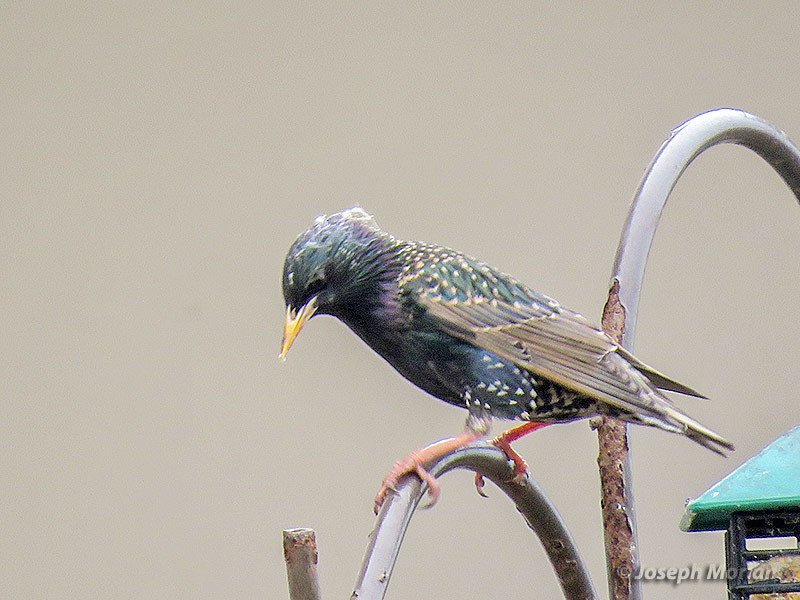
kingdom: Animalia
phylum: Chordata
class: Aves
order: Passeriformes
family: Sturnidae
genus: Sturnus
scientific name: Sturnus vulgaris
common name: Common starling
